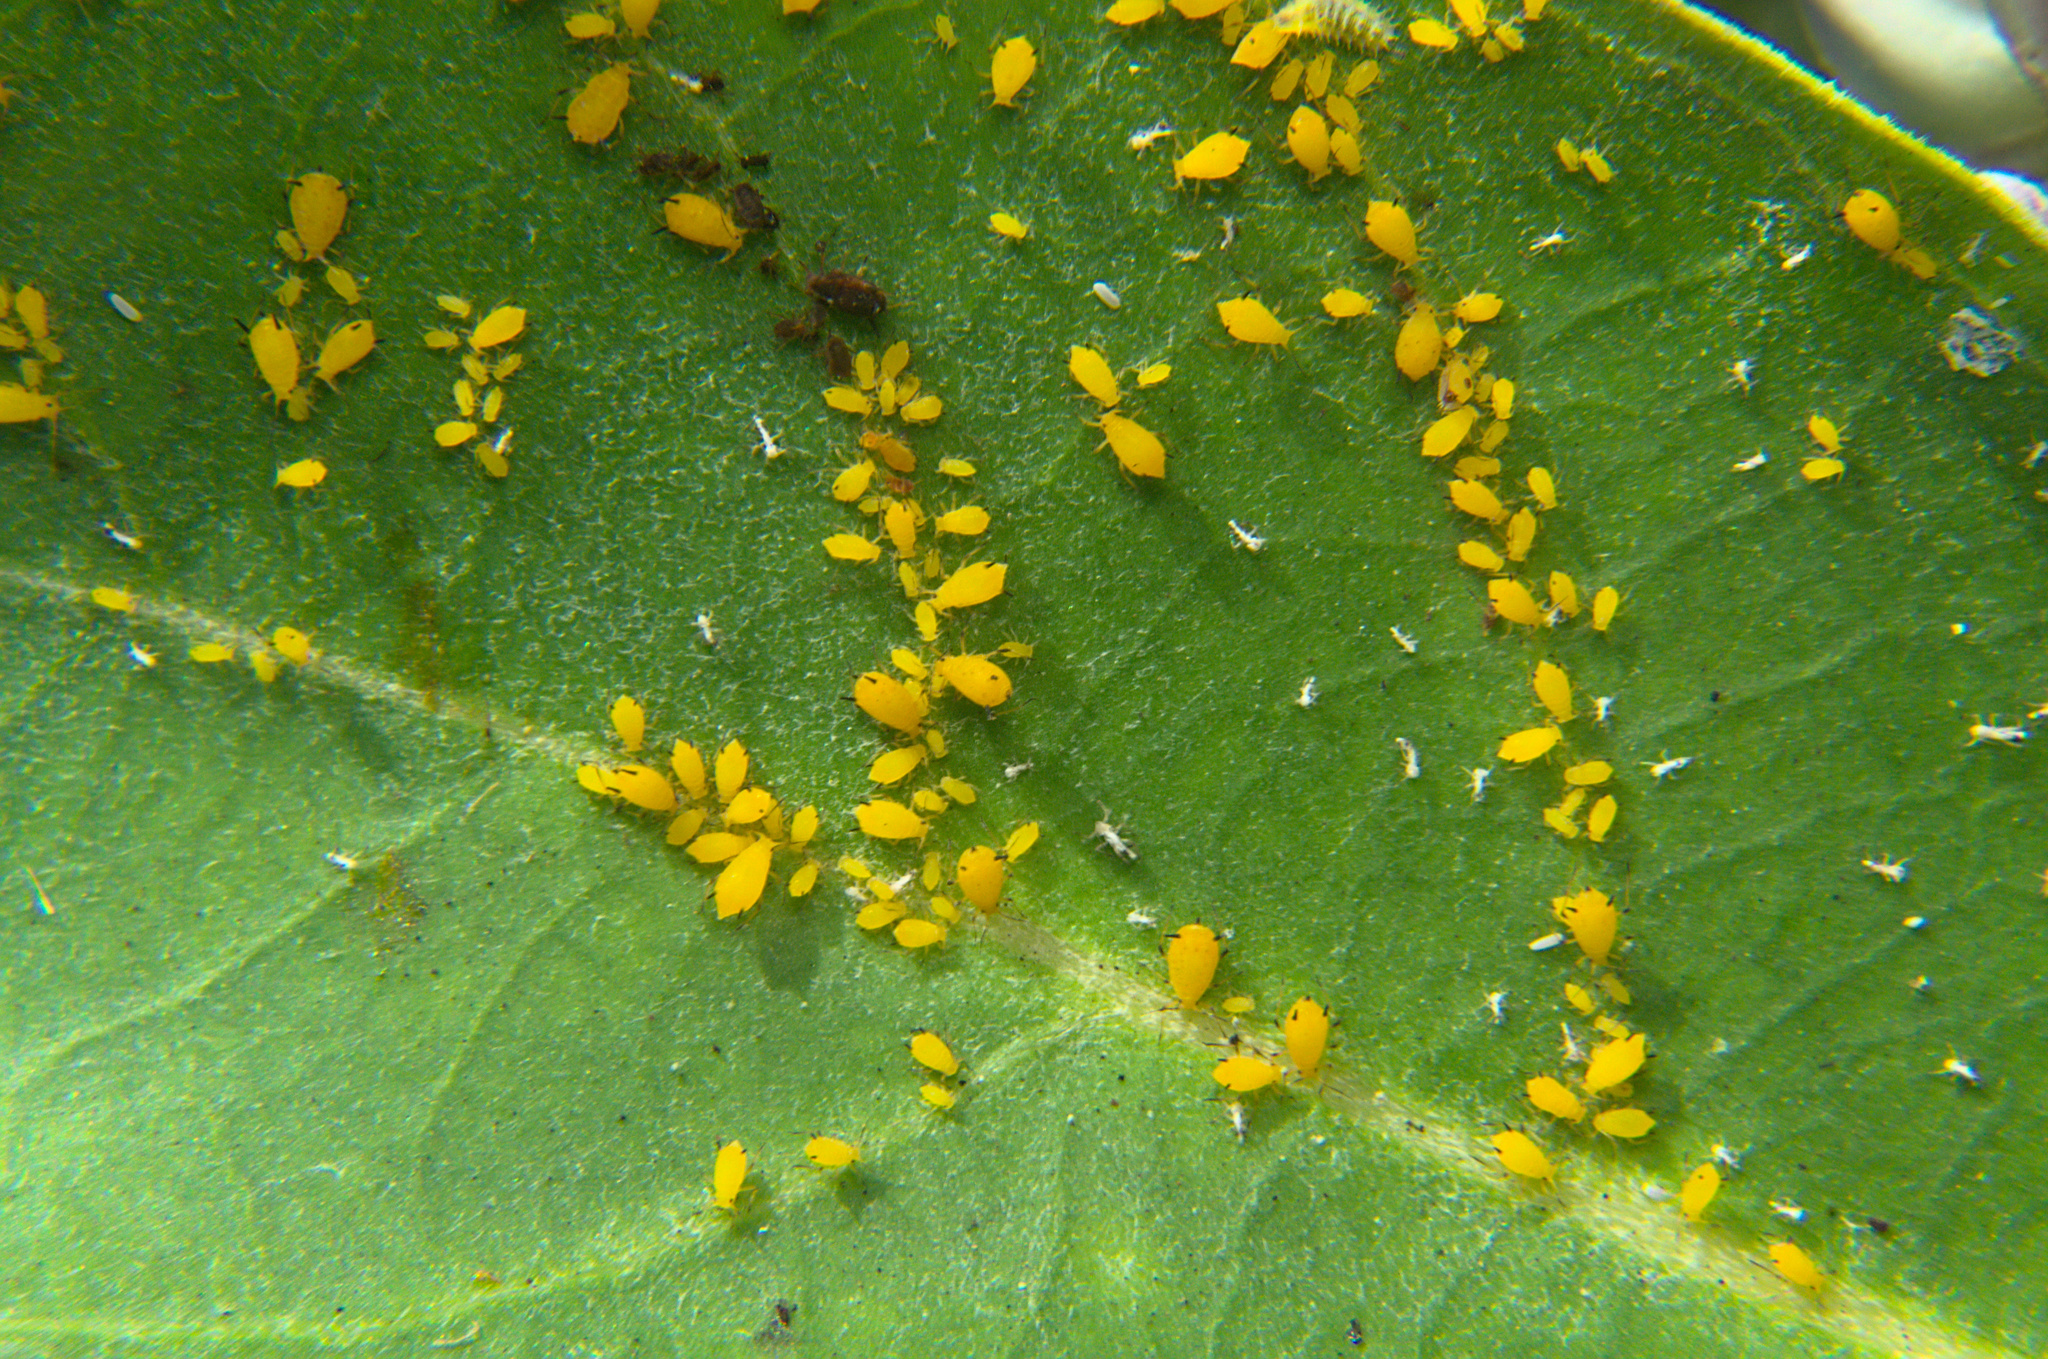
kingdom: Animalia
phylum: Arthropoda
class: Insecta
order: Hemiptera
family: Aphididae
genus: Aphis
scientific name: Aphis nerii
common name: Oleander aphid
